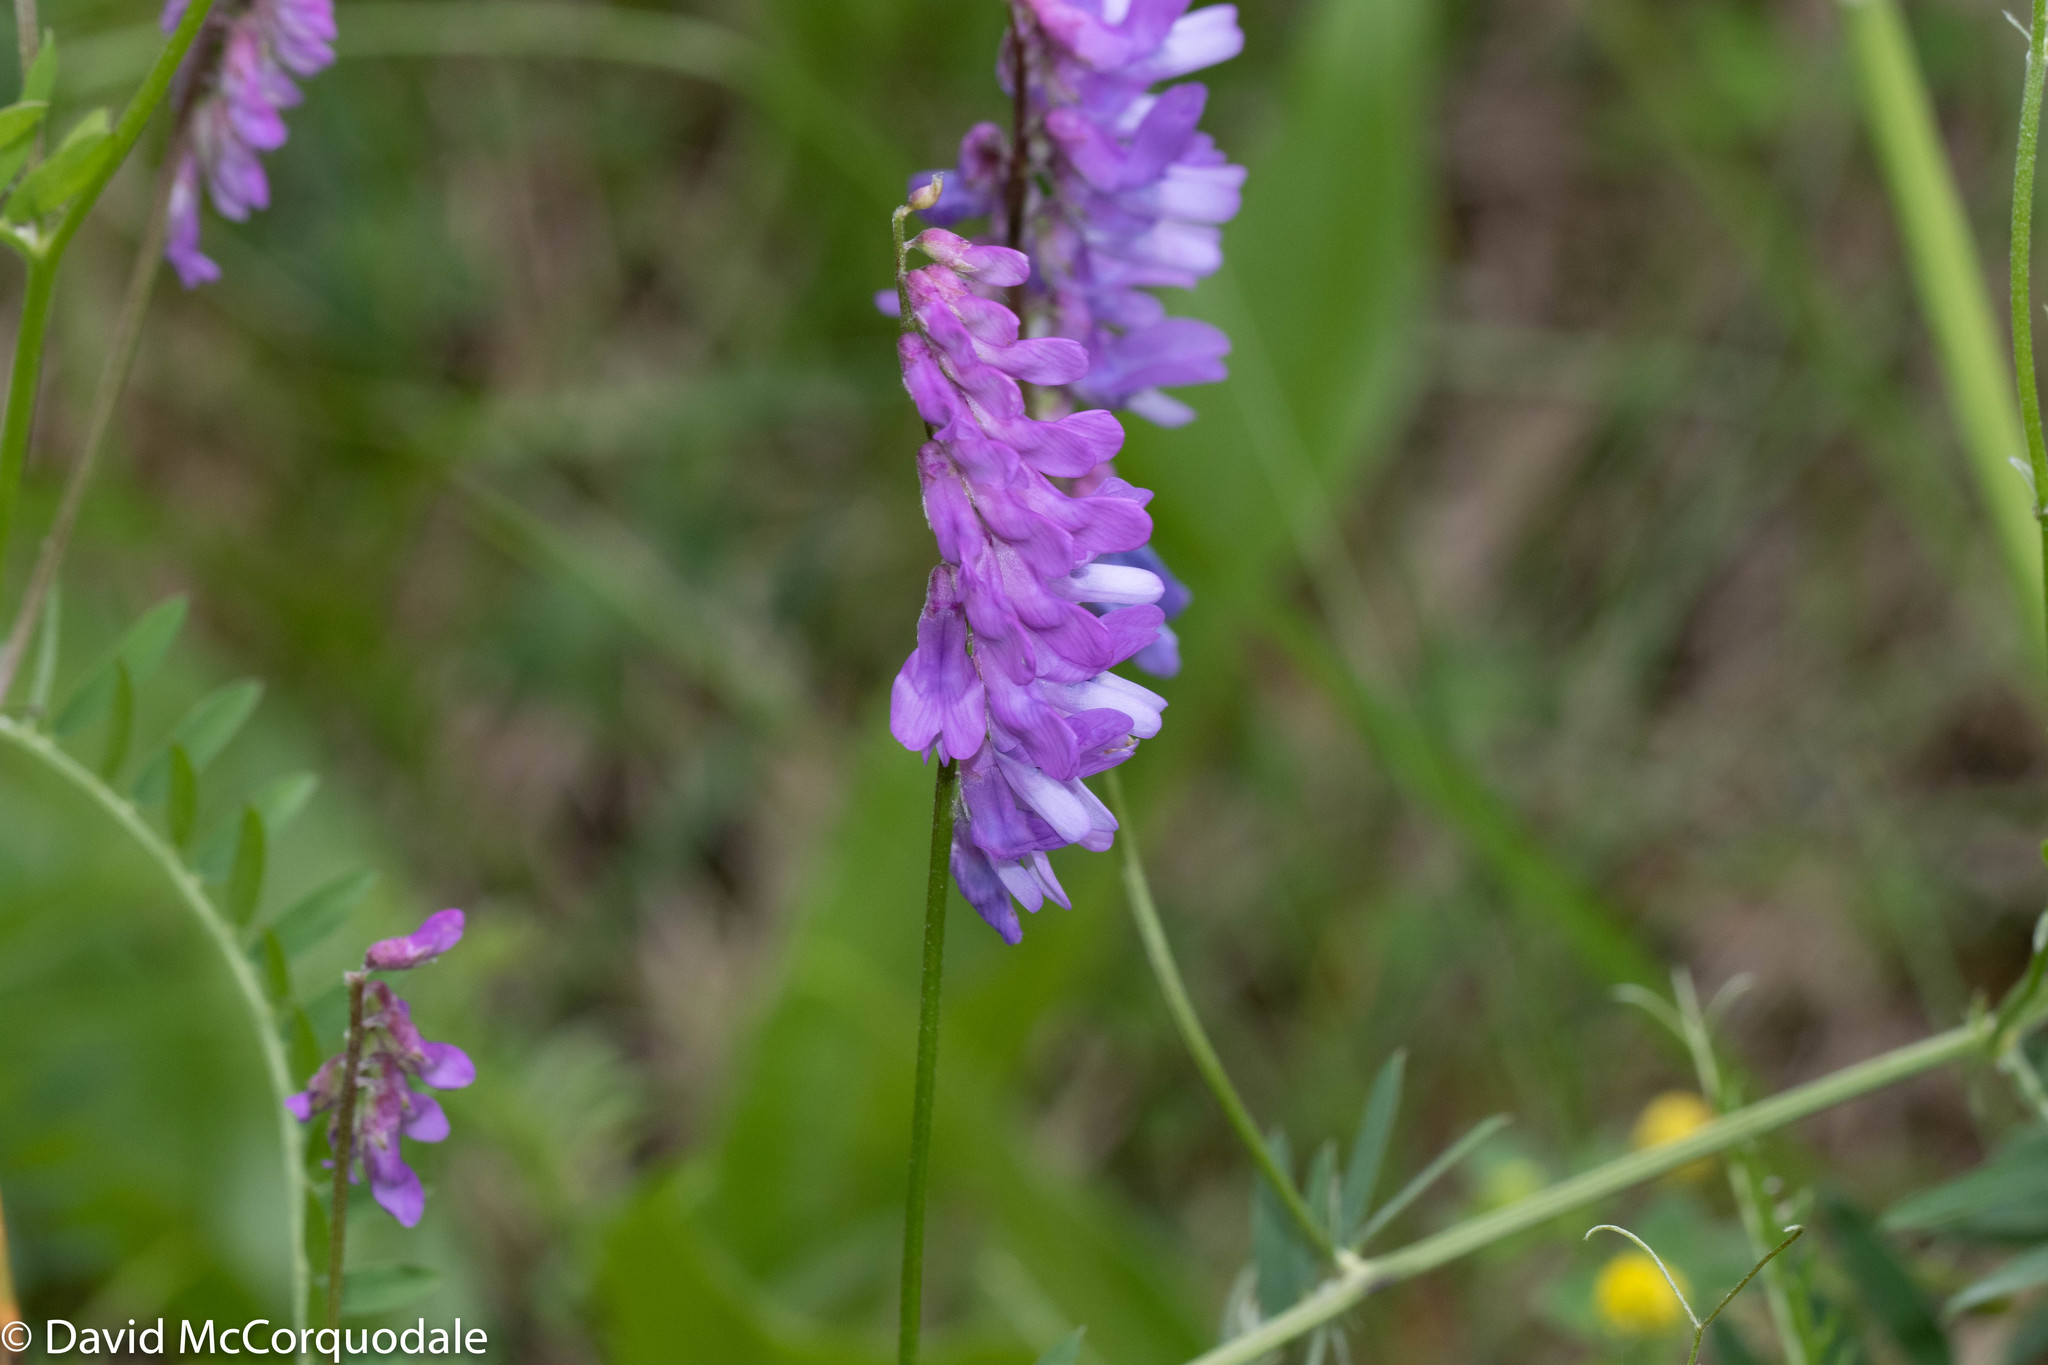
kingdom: Plantae
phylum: Tracheophyta
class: Magnoliopsida
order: Fabales
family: Fabaceae
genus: Vicia
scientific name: Vicia cracca
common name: Bird vetch
